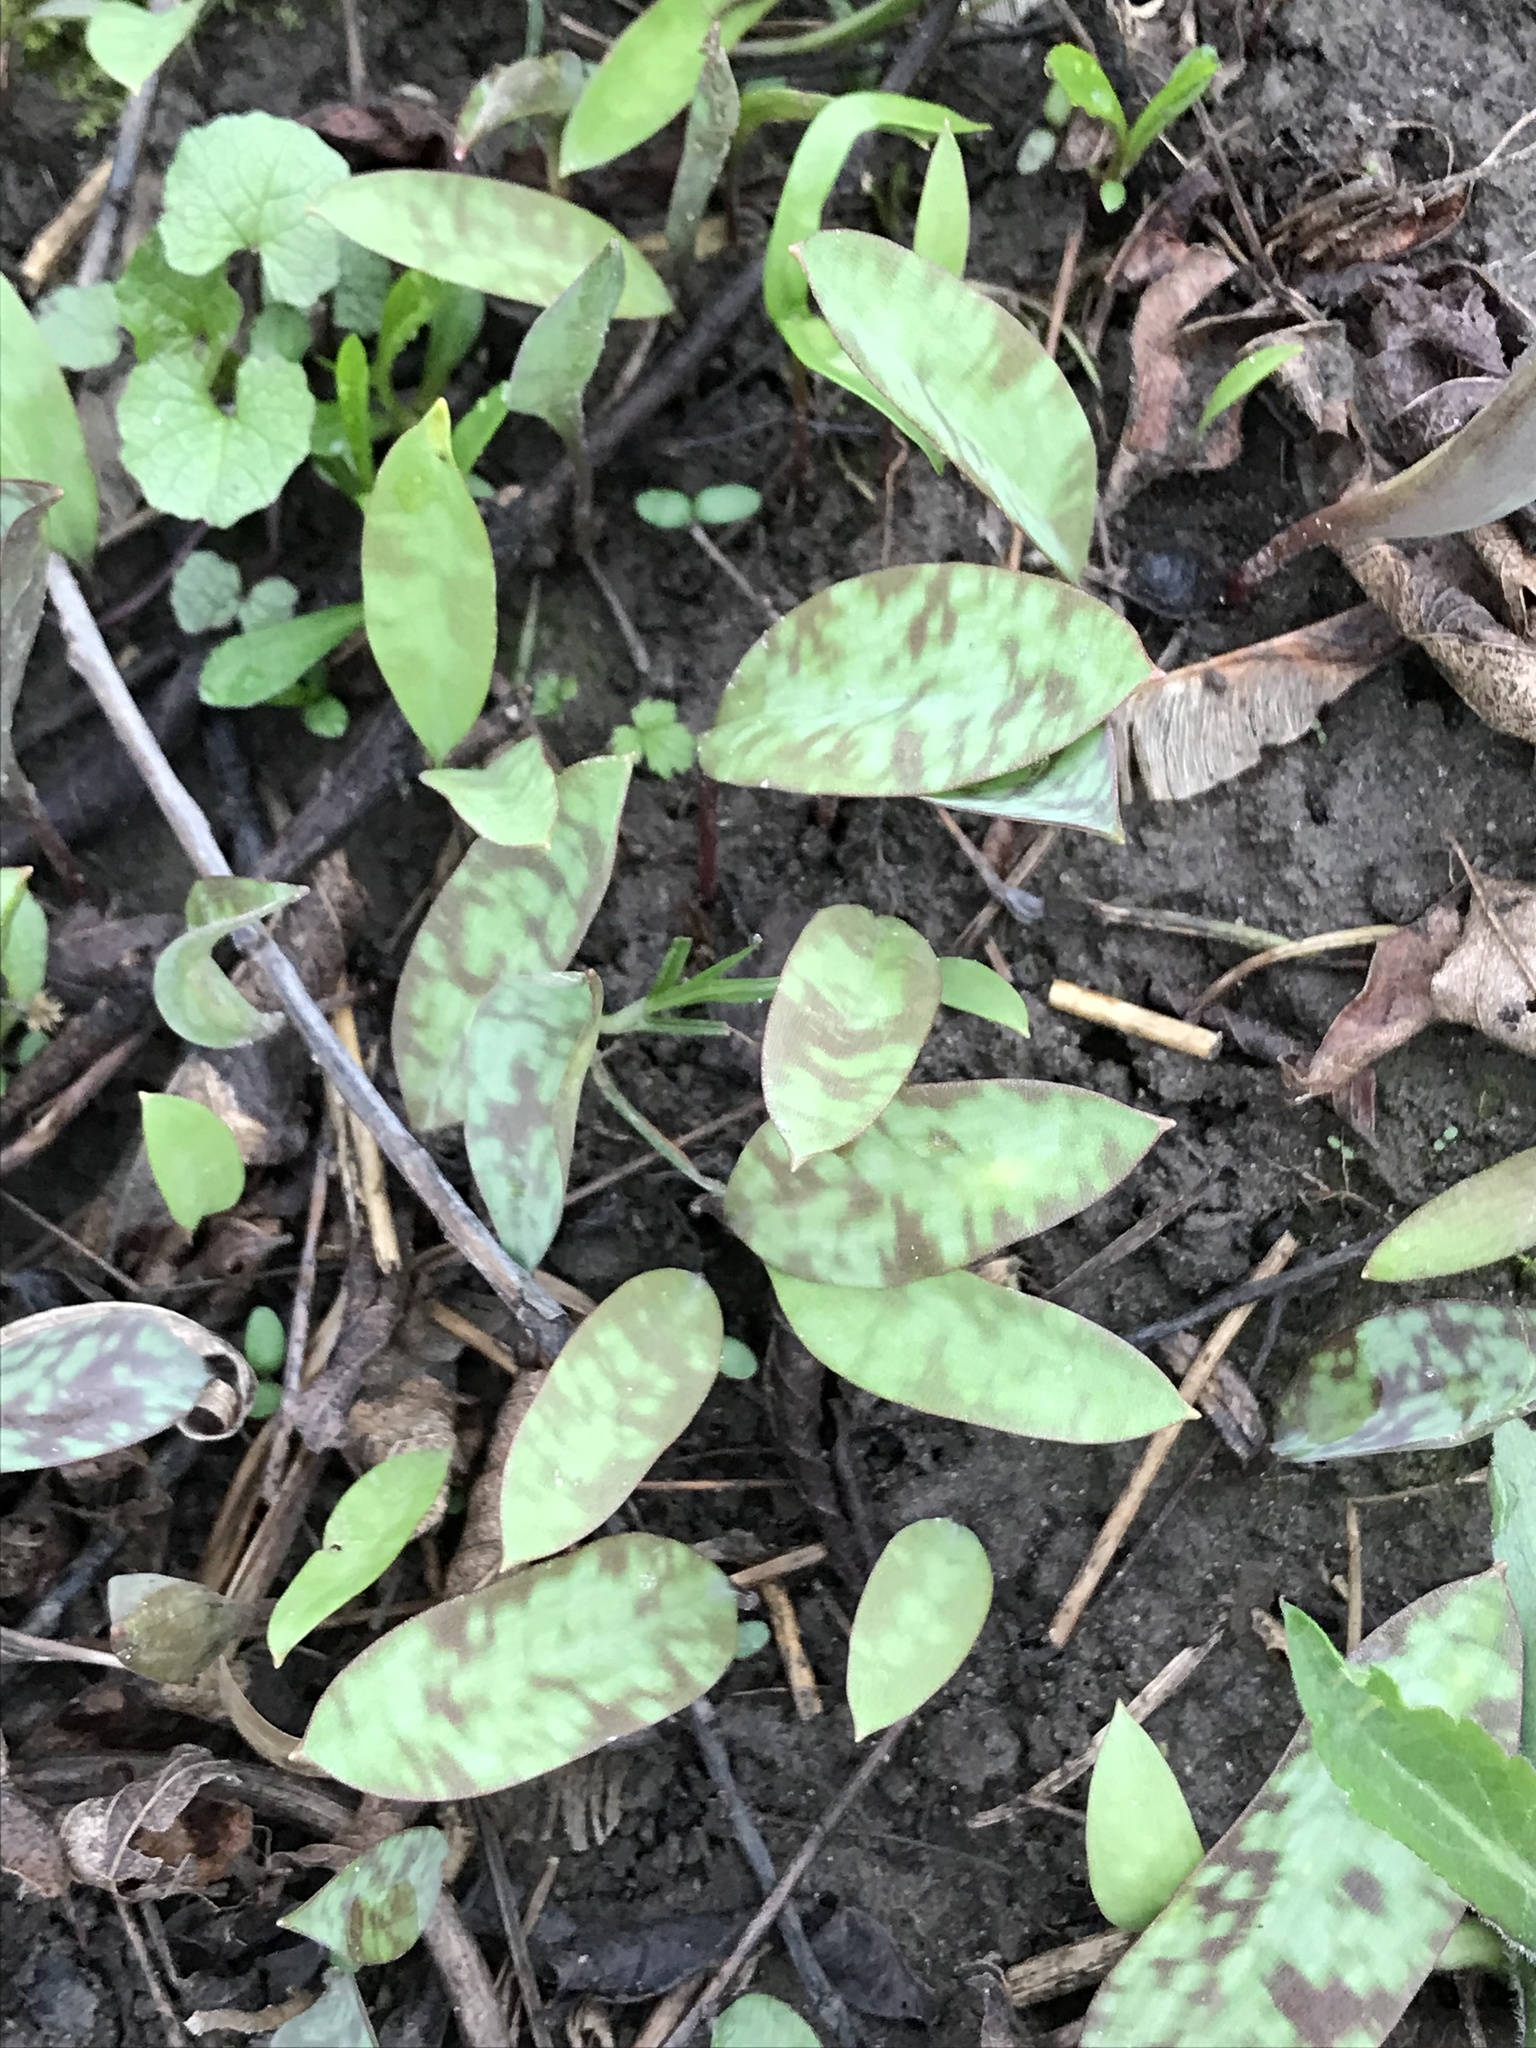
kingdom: Plantae
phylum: Tracheophyta
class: Liliopsida
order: Liliales
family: Liliaceae
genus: Erythronium
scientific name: Erythronium americanum
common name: Yellow adder's-tongue
